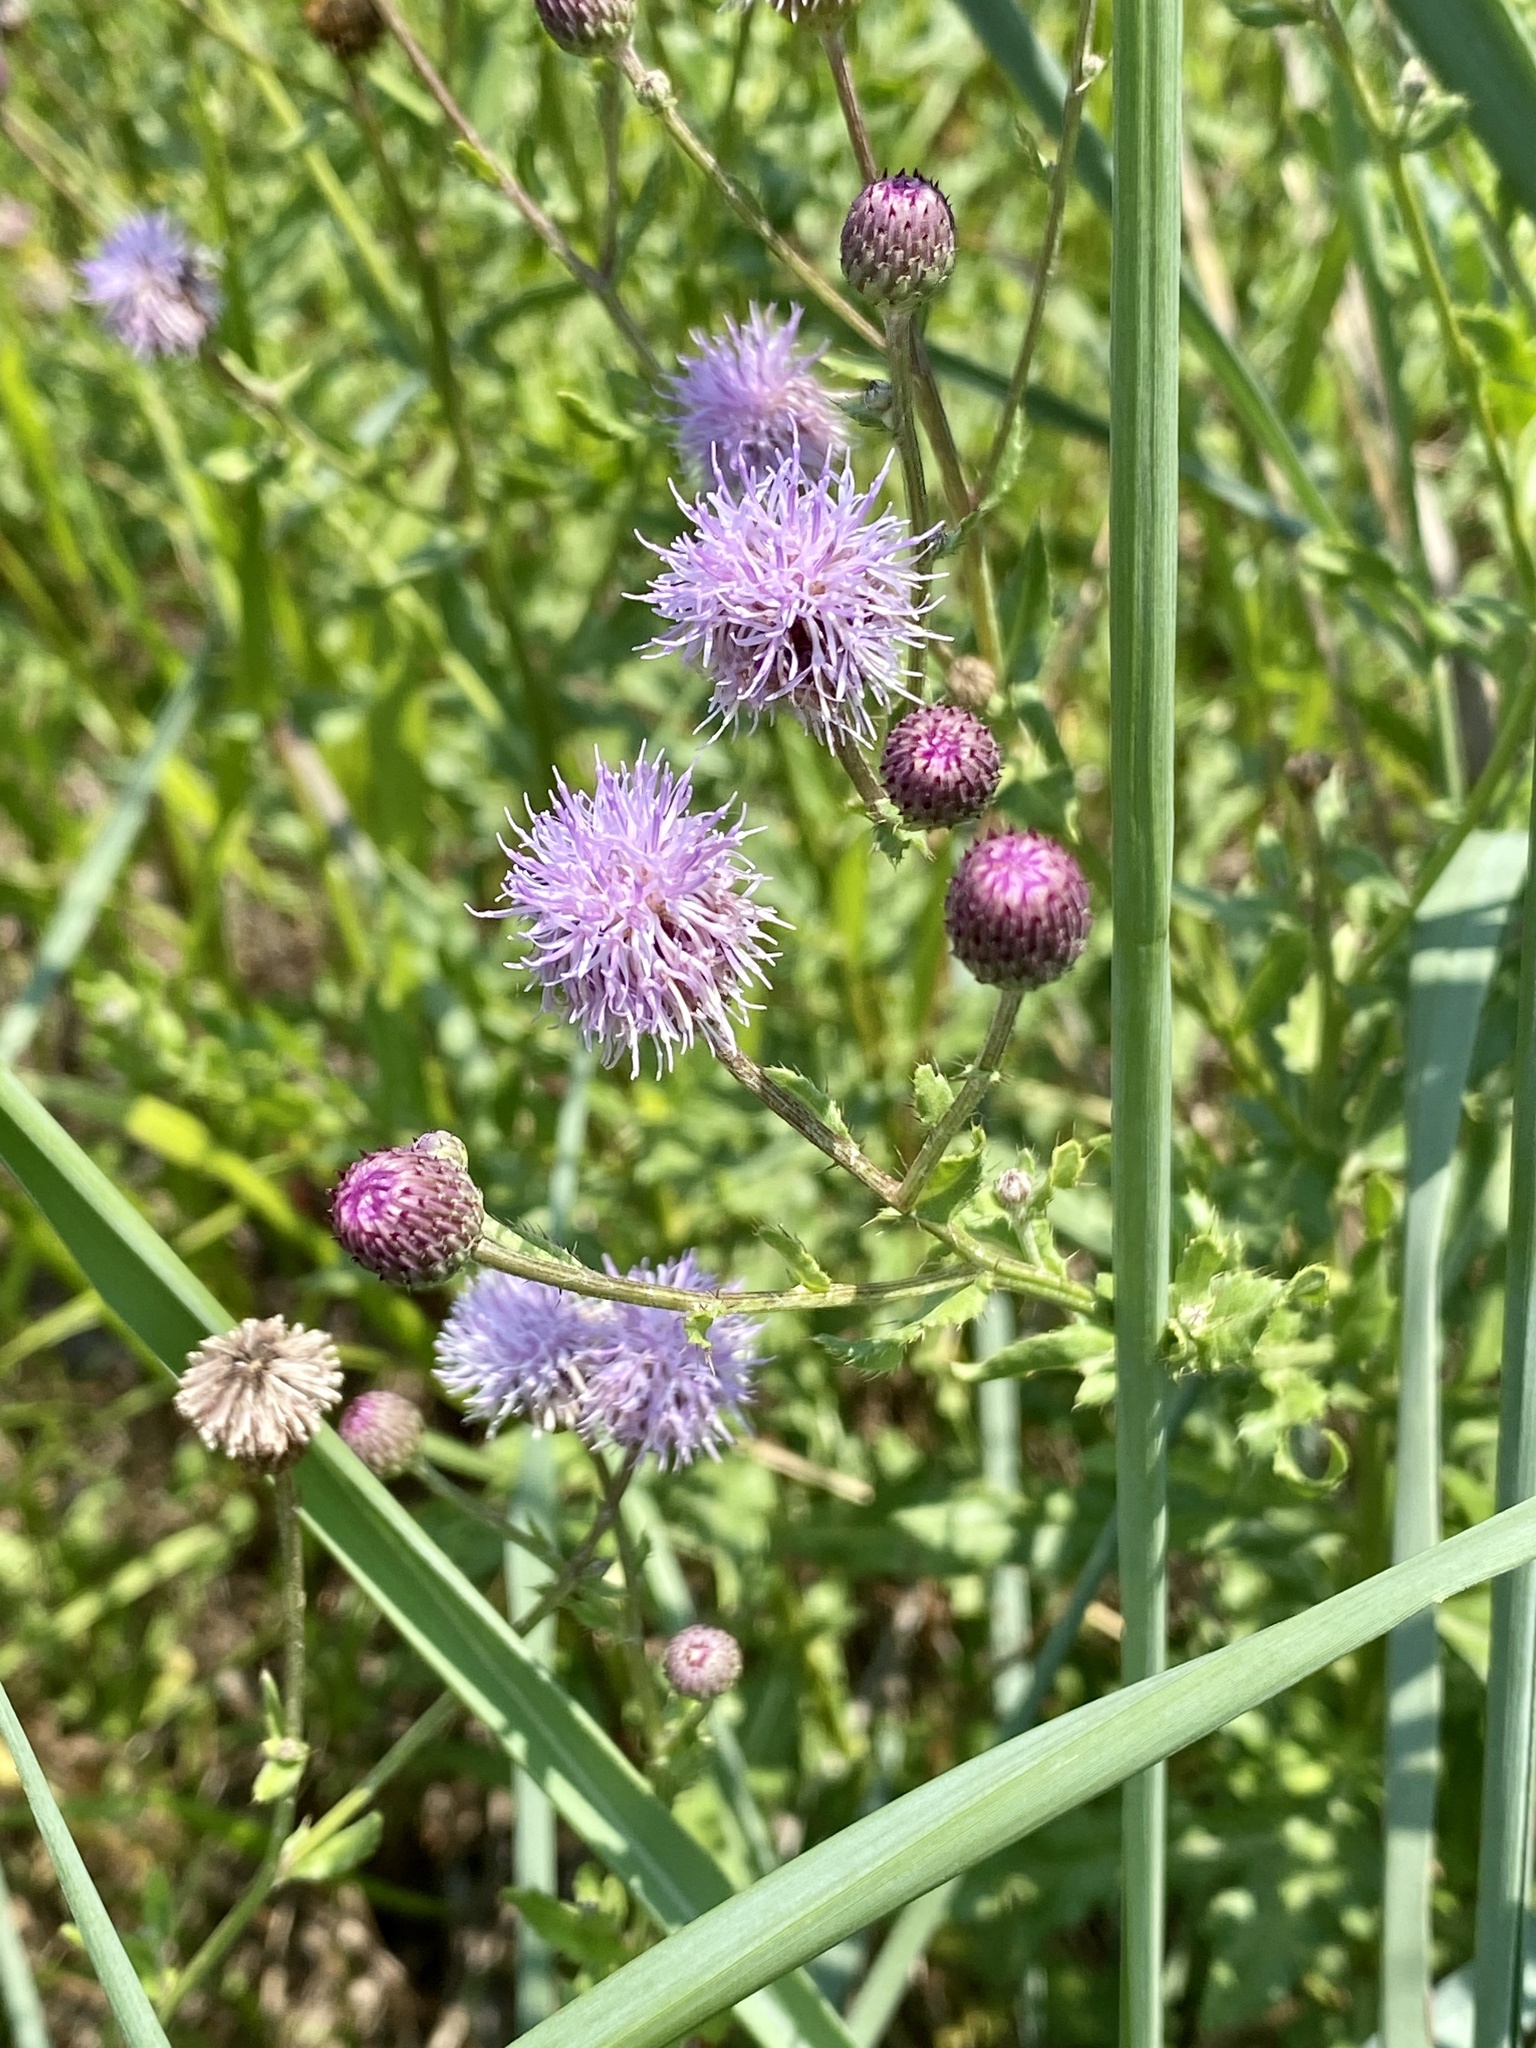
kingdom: Plantae
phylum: Tracheophyta
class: Magnoliopsida
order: Asterales
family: Asteraceae
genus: Cirsium
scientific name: Cirsium arvense
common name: Creeping thistle
